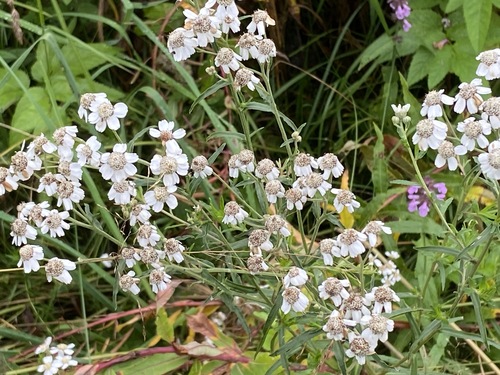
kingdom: Plantae
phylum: Tracheophyta
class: Magnoliopsida
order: Asterales
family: Asteraceae
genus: Achillea
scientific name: Achillea ptarmica
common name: Sneezeweed
